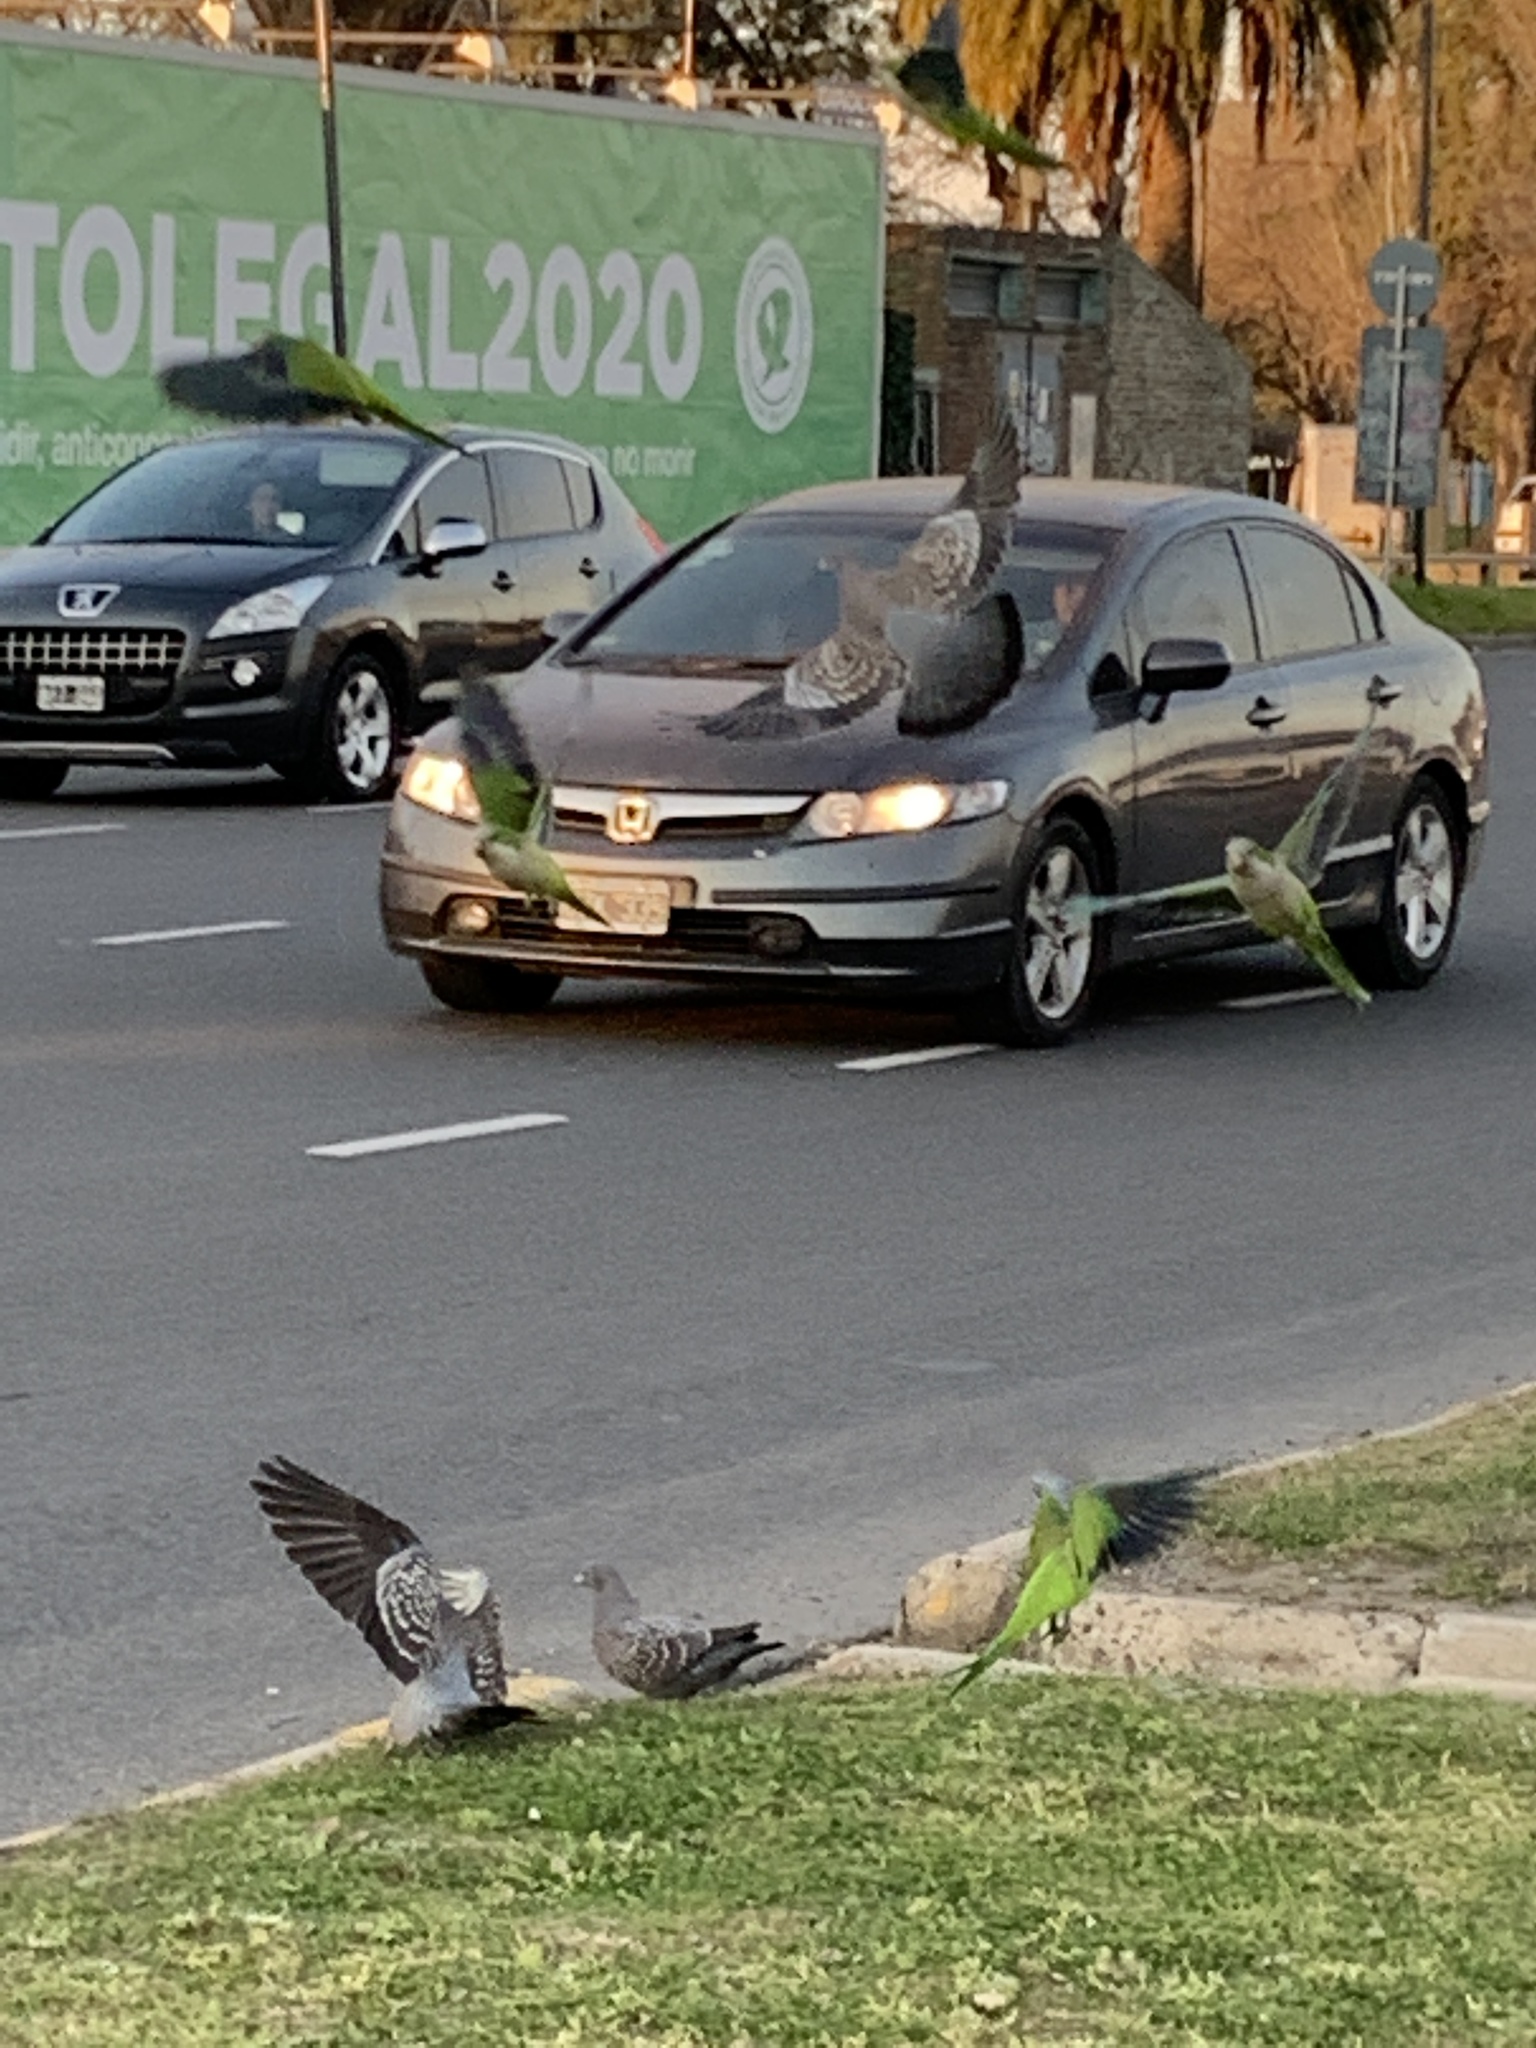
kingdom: Animalia
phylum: Chordata
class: Aves
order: Psittaciformes
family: Psittacidae
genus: Myiopsitta
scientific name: Myiopsitta monachus
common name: Monk parakeet
